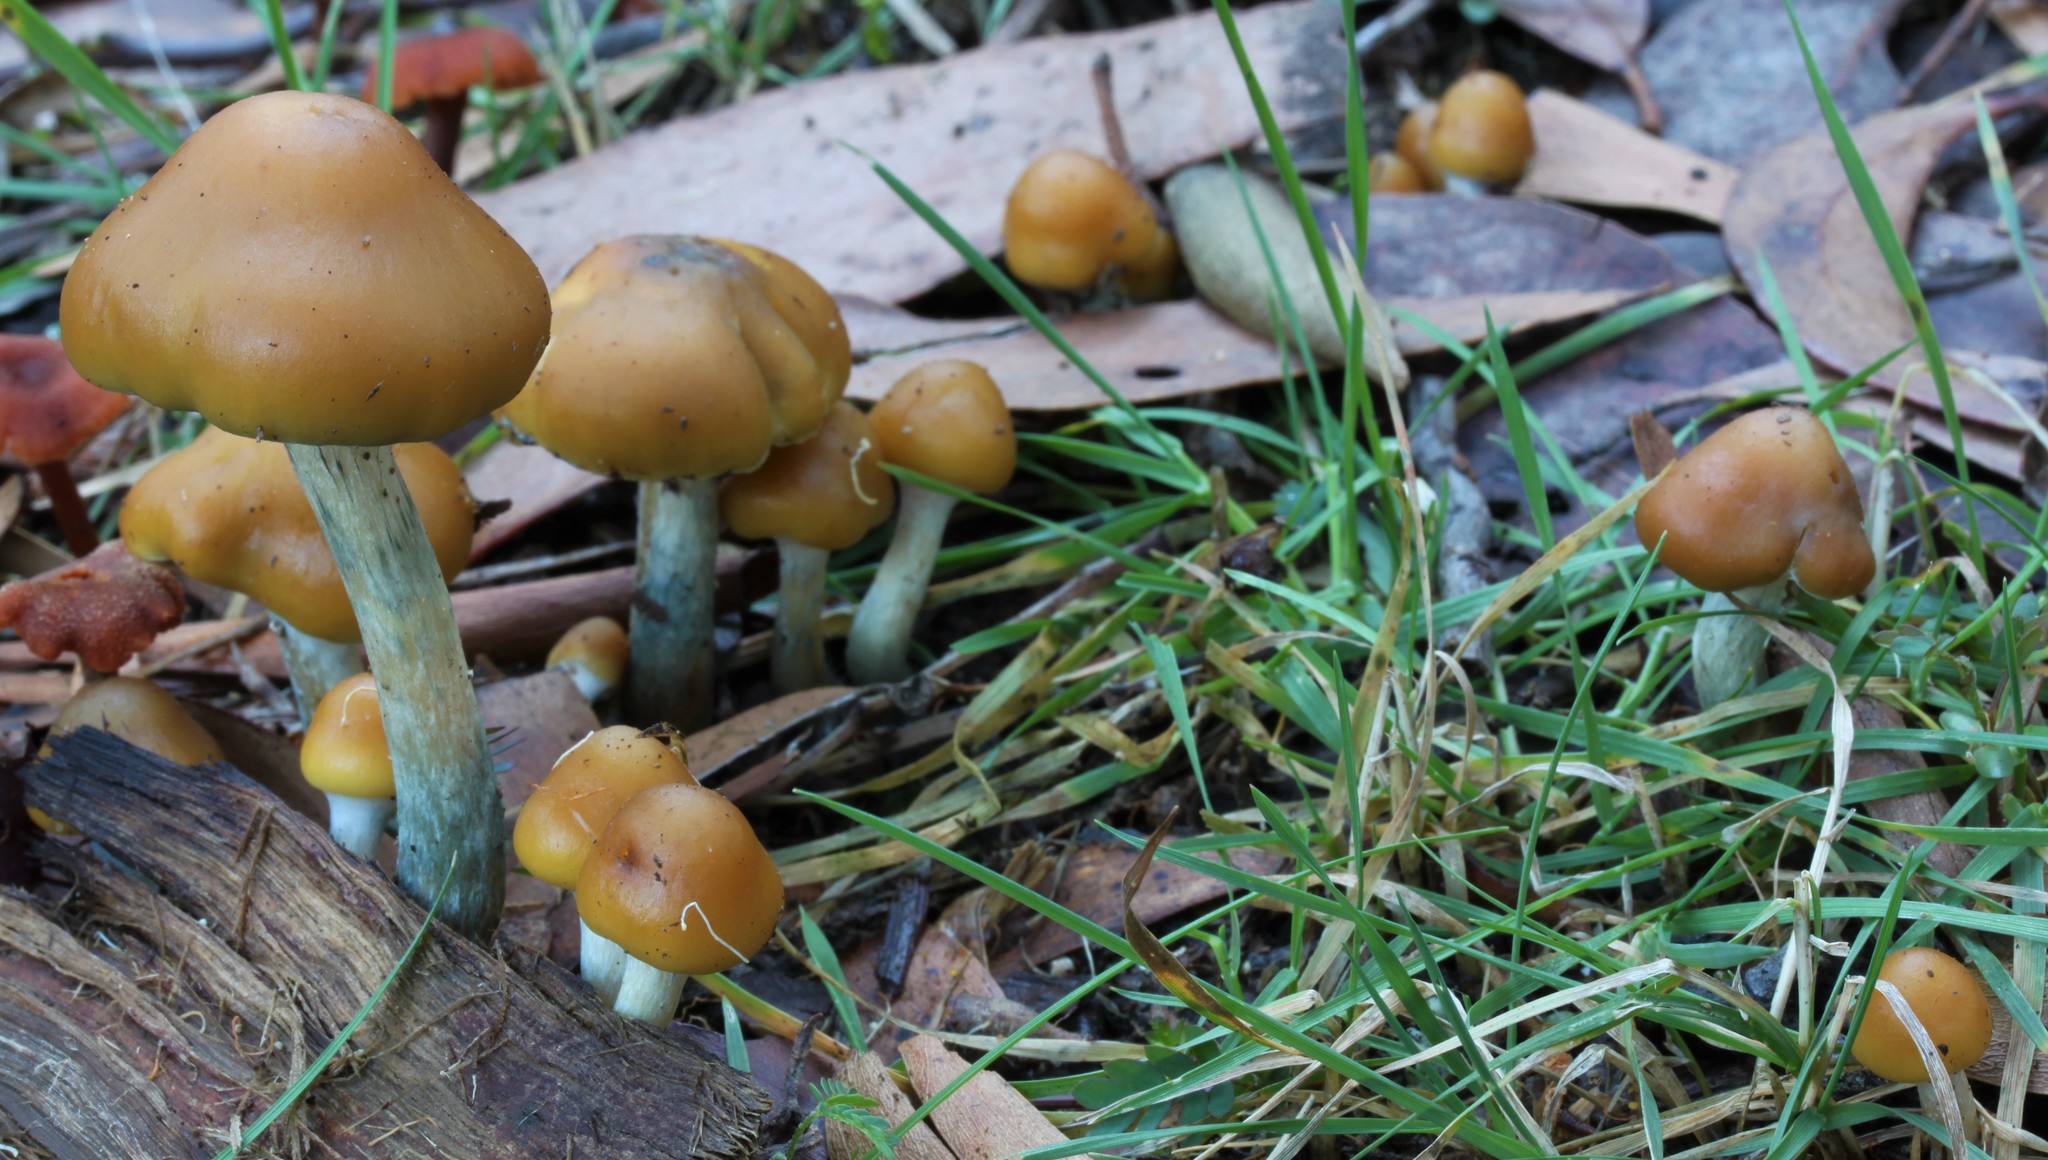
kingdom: Fungi
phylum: Basidiomycota
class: Agaricomycetes
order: Agaricales
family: Hymenogastraceae
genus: Psilocybe
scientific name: Psilocybe subaeruginosa
